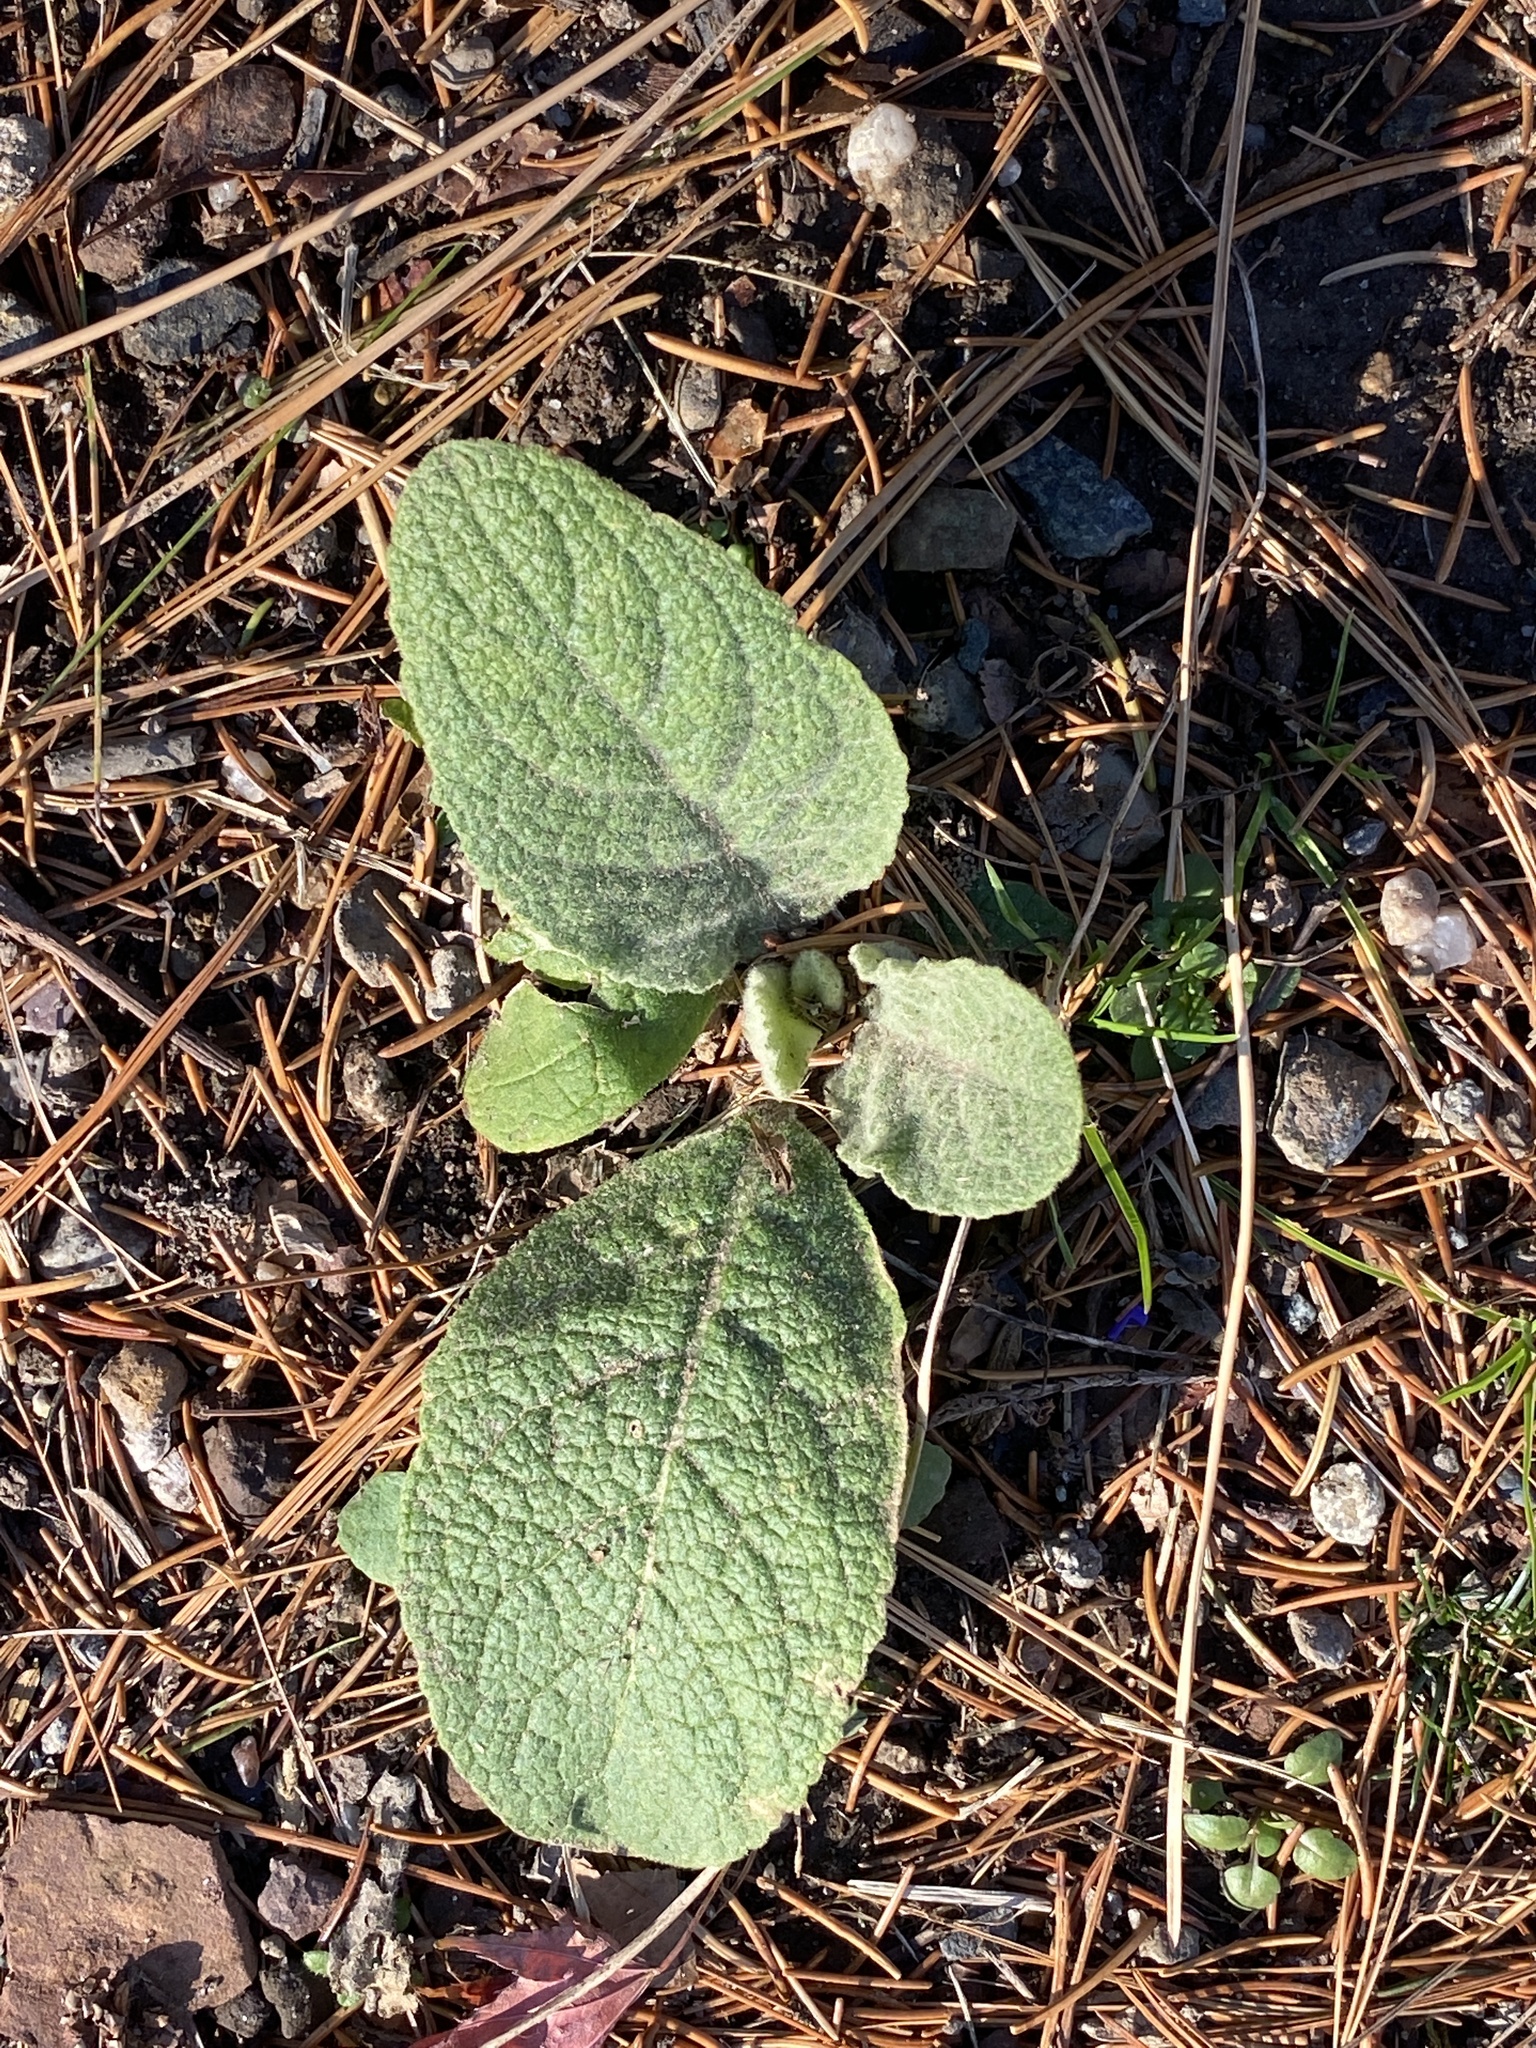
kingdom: Plantae
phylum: Tracheophyta
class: Magnoliopsida
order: Lamiales
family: Scrophulariaceae
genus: Verbascum
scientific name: Verbascum thapsus
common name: Common mullein
